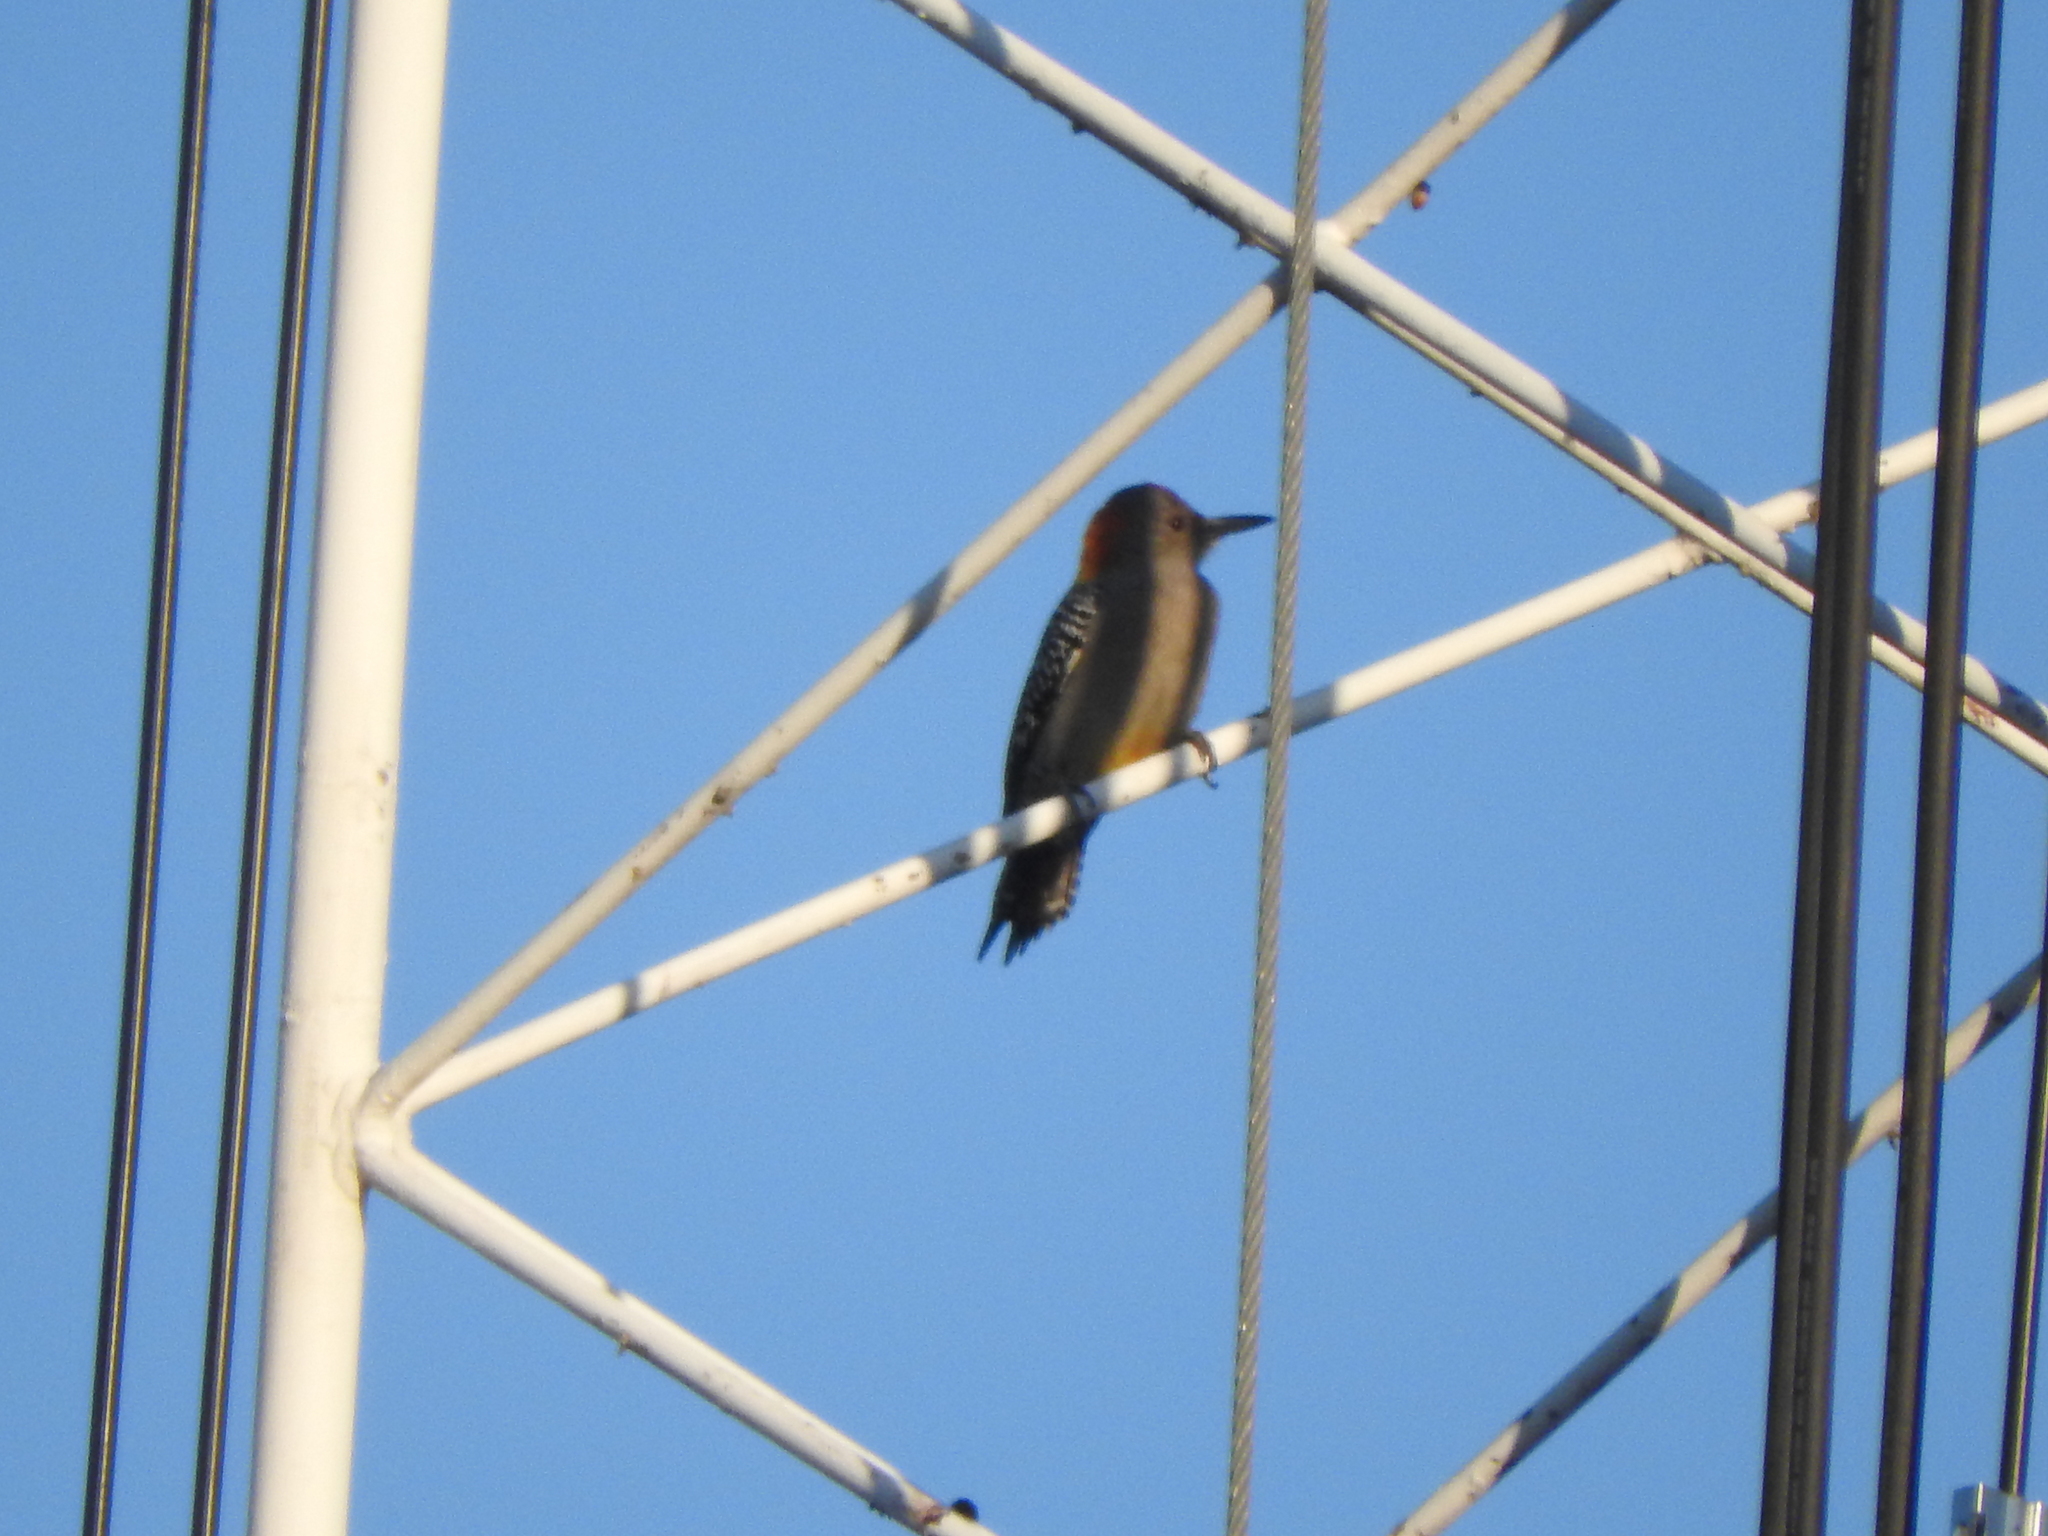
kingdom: Animalia
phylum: Chordata
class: Aves
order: Piciformes
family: Picidae
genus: Melanerpes
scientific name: Melanerpes aurifrons
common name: Golden-fronted woodpecker
